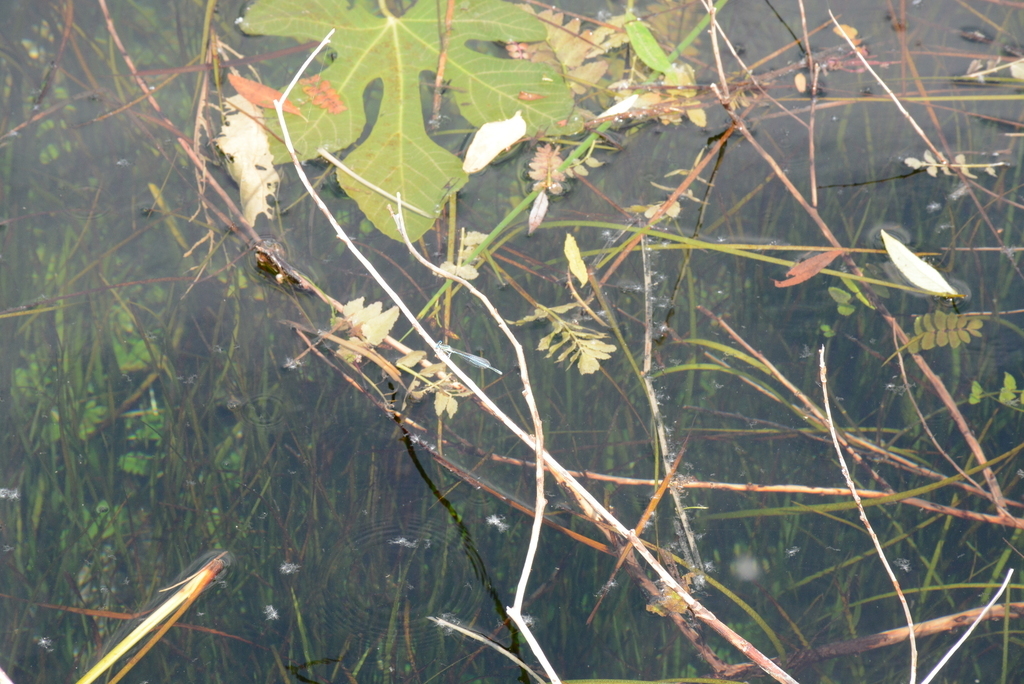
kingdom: Animalia
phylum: Arthropoda
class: Insecta
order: Odonata
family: Platycnemididae
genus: Platycnemis
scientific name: Platycnemis pennipes
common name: White-legged damselfly
